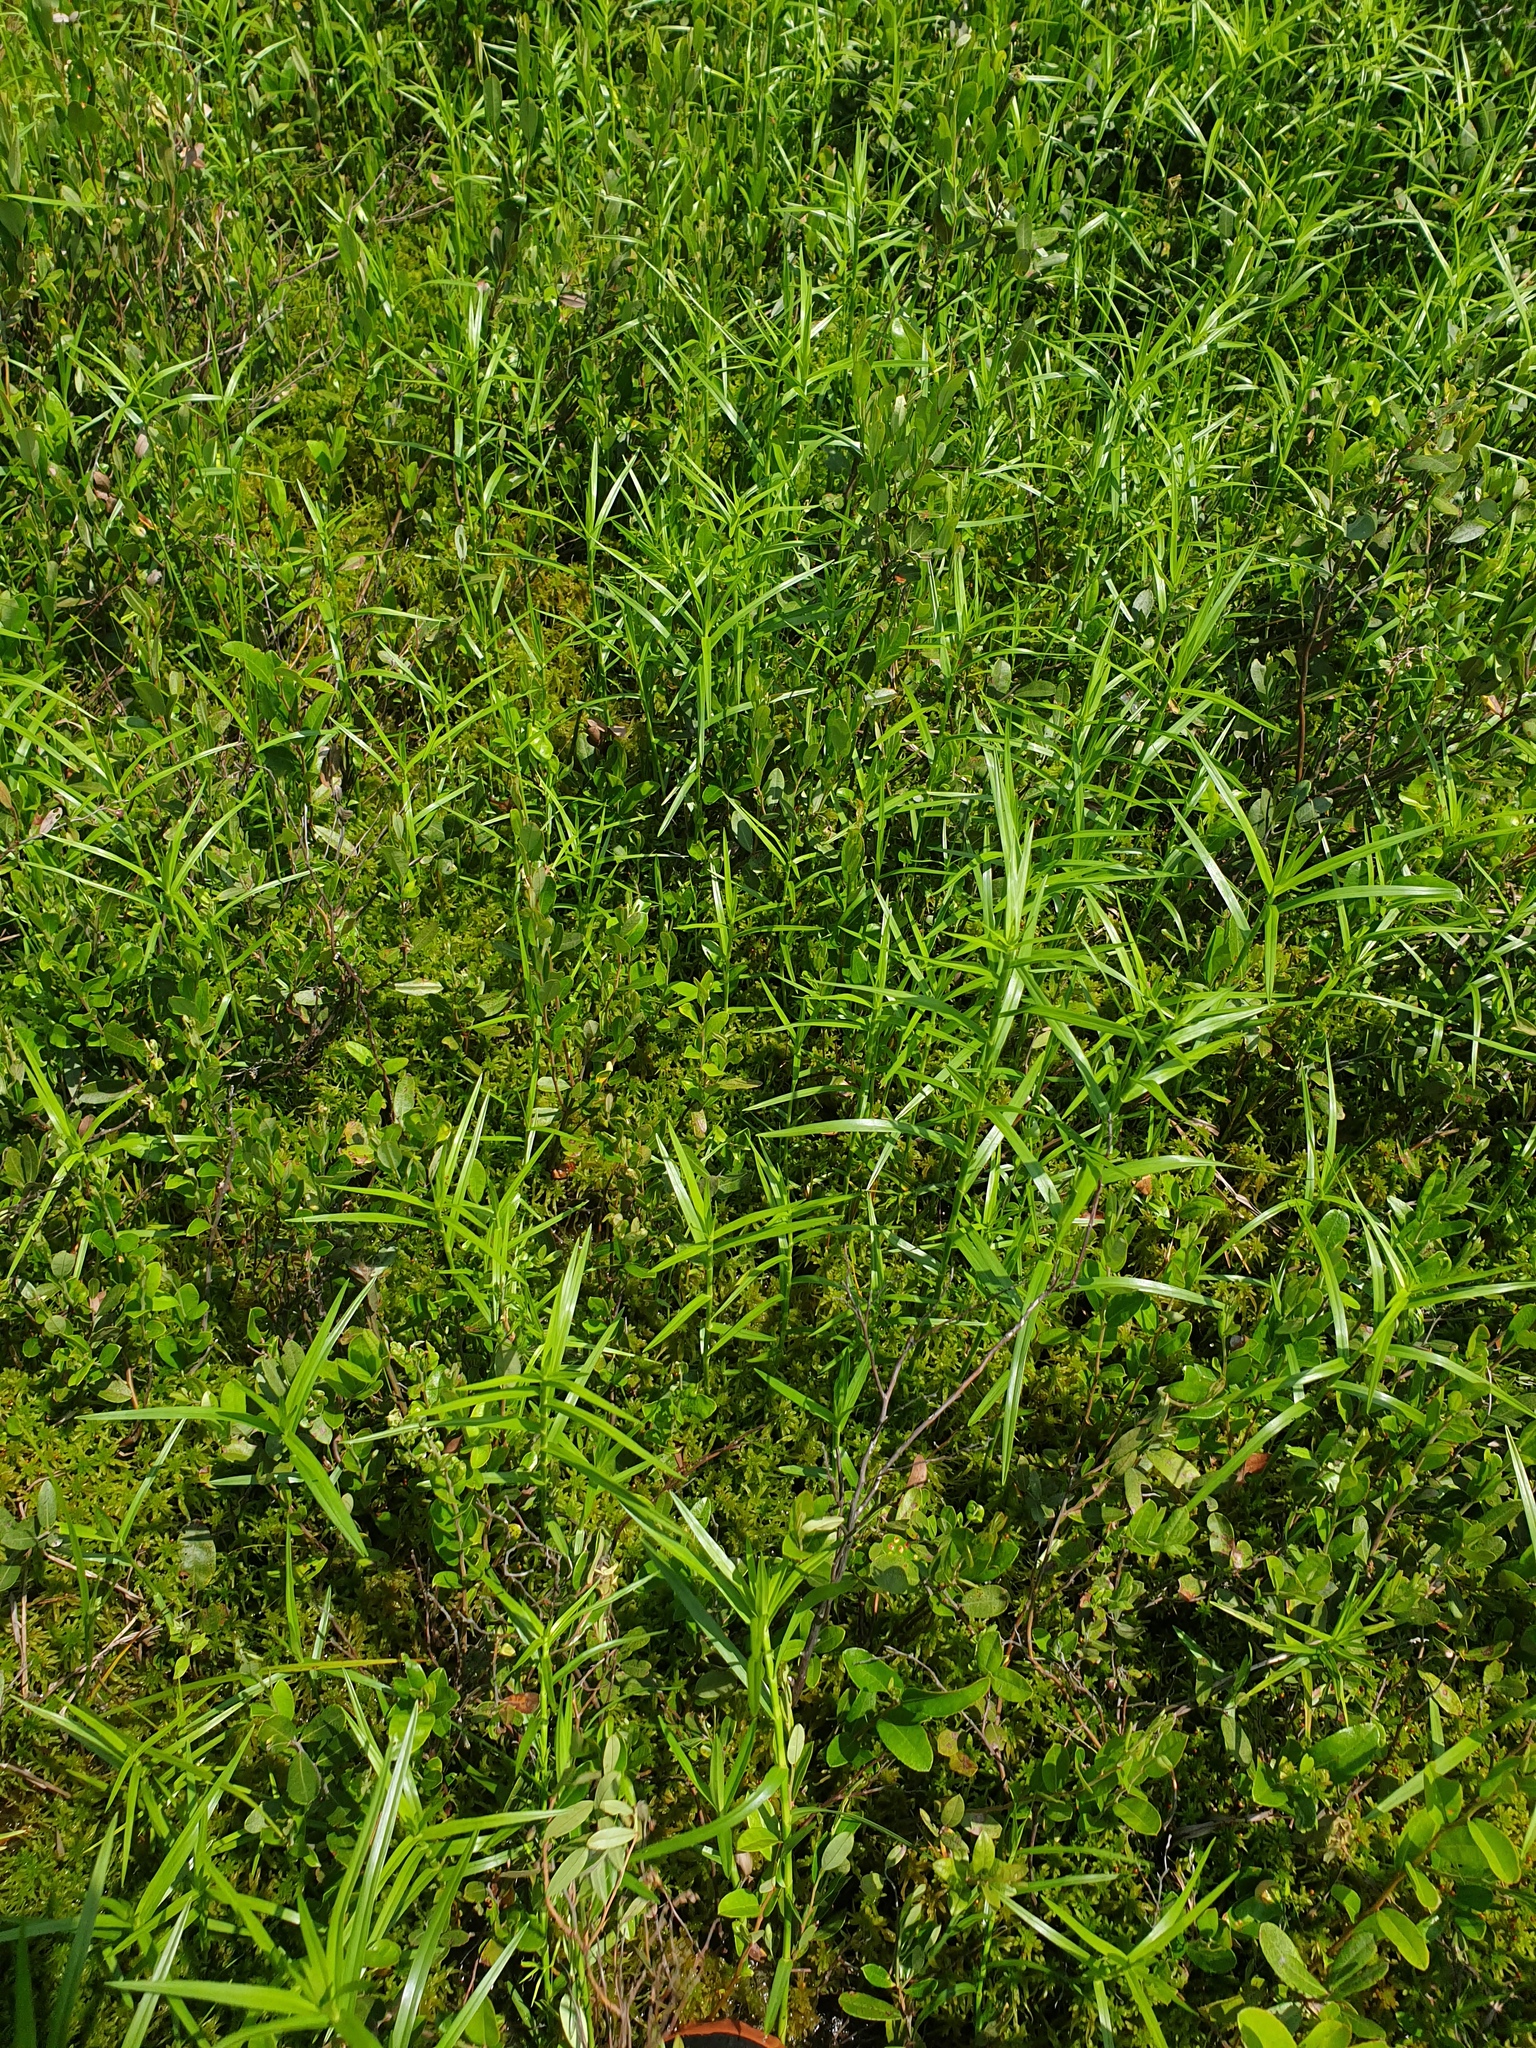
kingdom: Plantae
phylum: Tracheophyta
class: Liliopsida
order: Poales
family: Cyperaceae
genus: Dulichium
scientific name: Dulichium arundinaceum
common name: Three-way sedge
